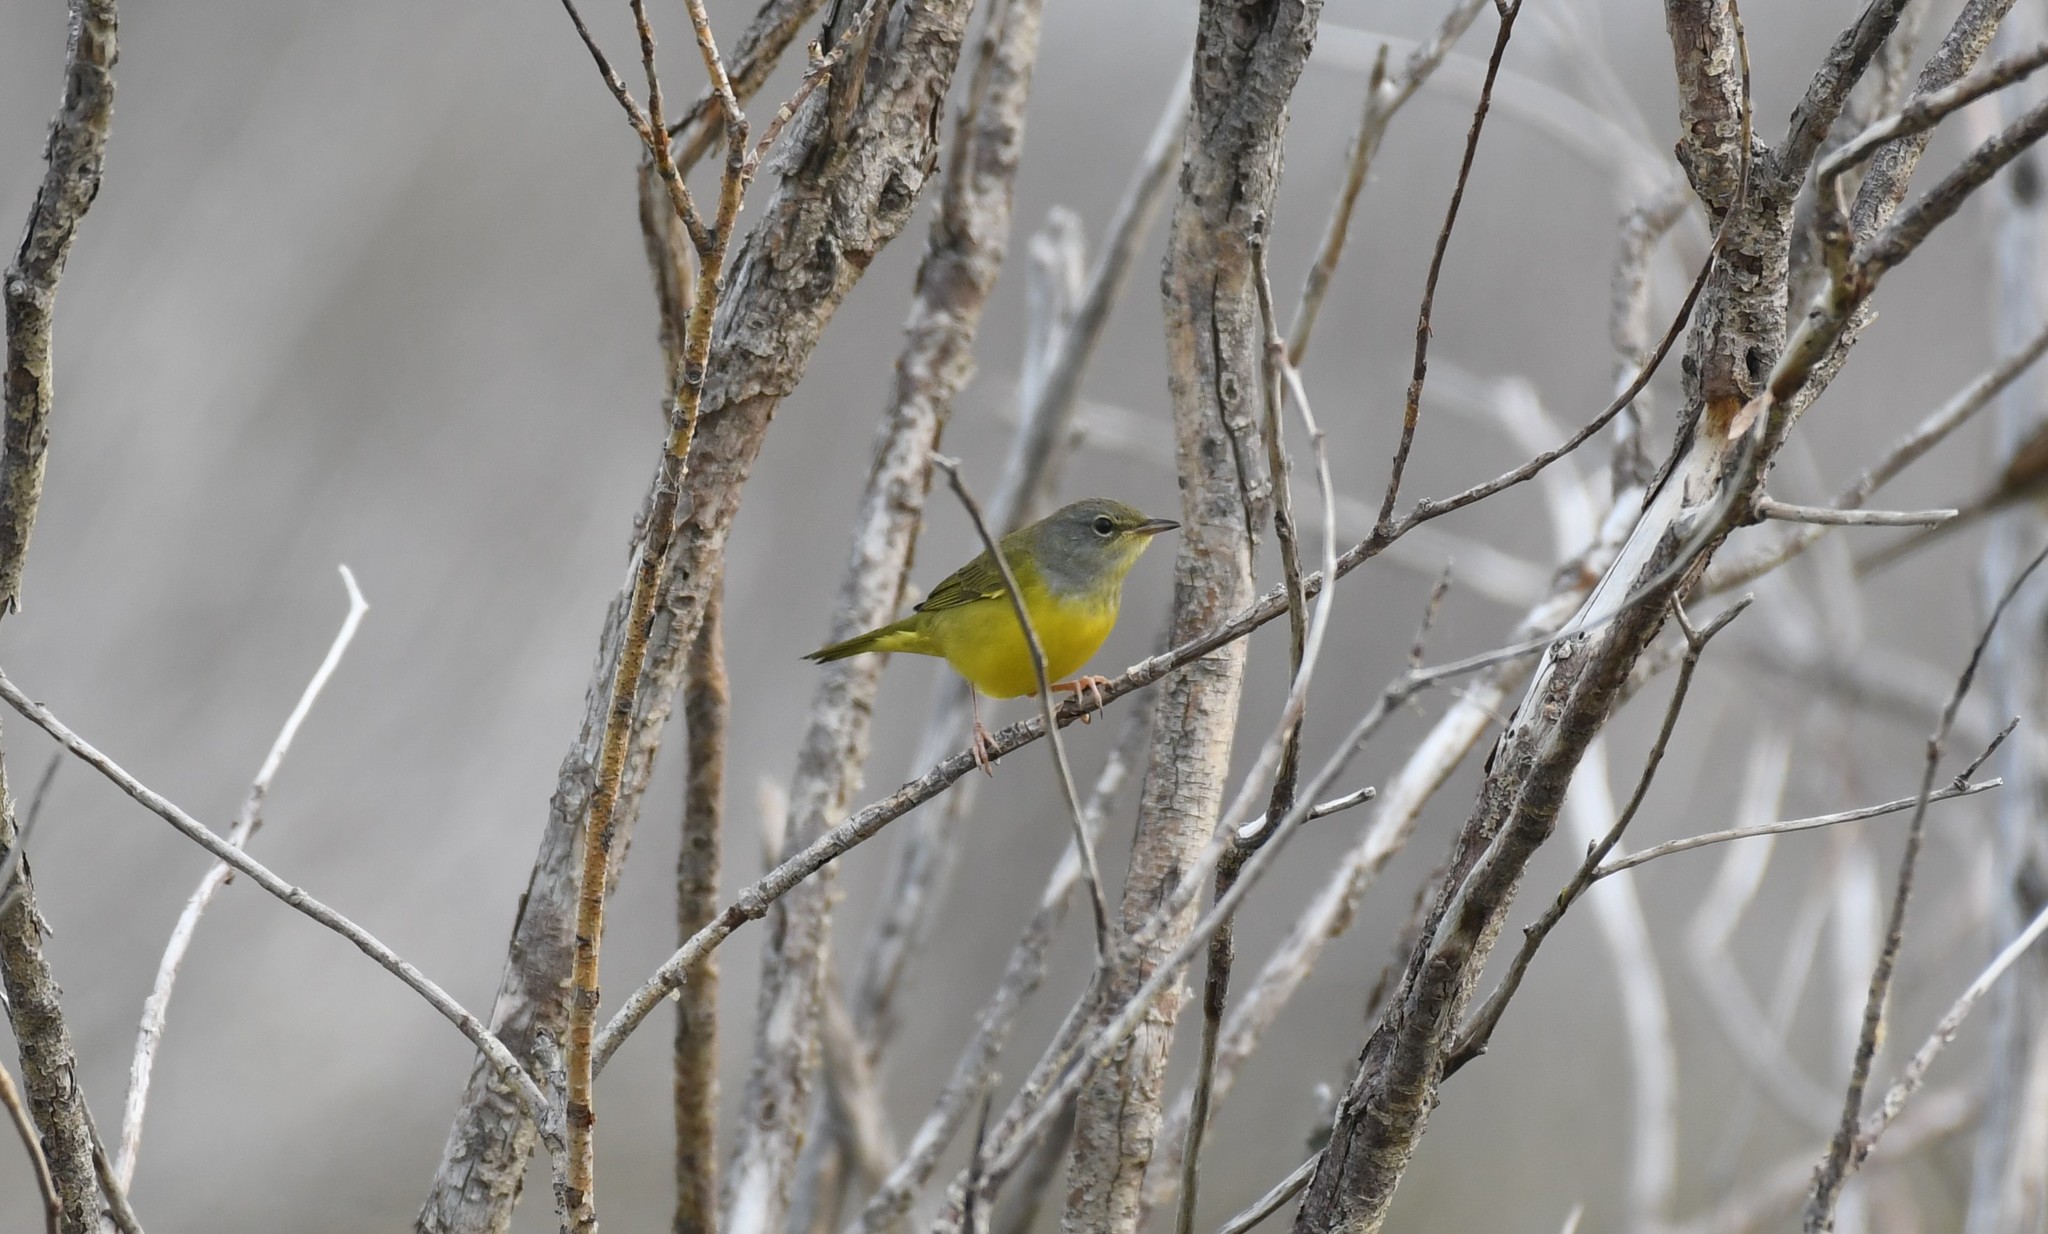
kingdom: Animalia
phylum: Chordata
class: Aves
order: Passeriformes
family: Parulidae
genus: Geothlypis
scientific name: Geothlypis philadelphia
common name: Mourning warbler
